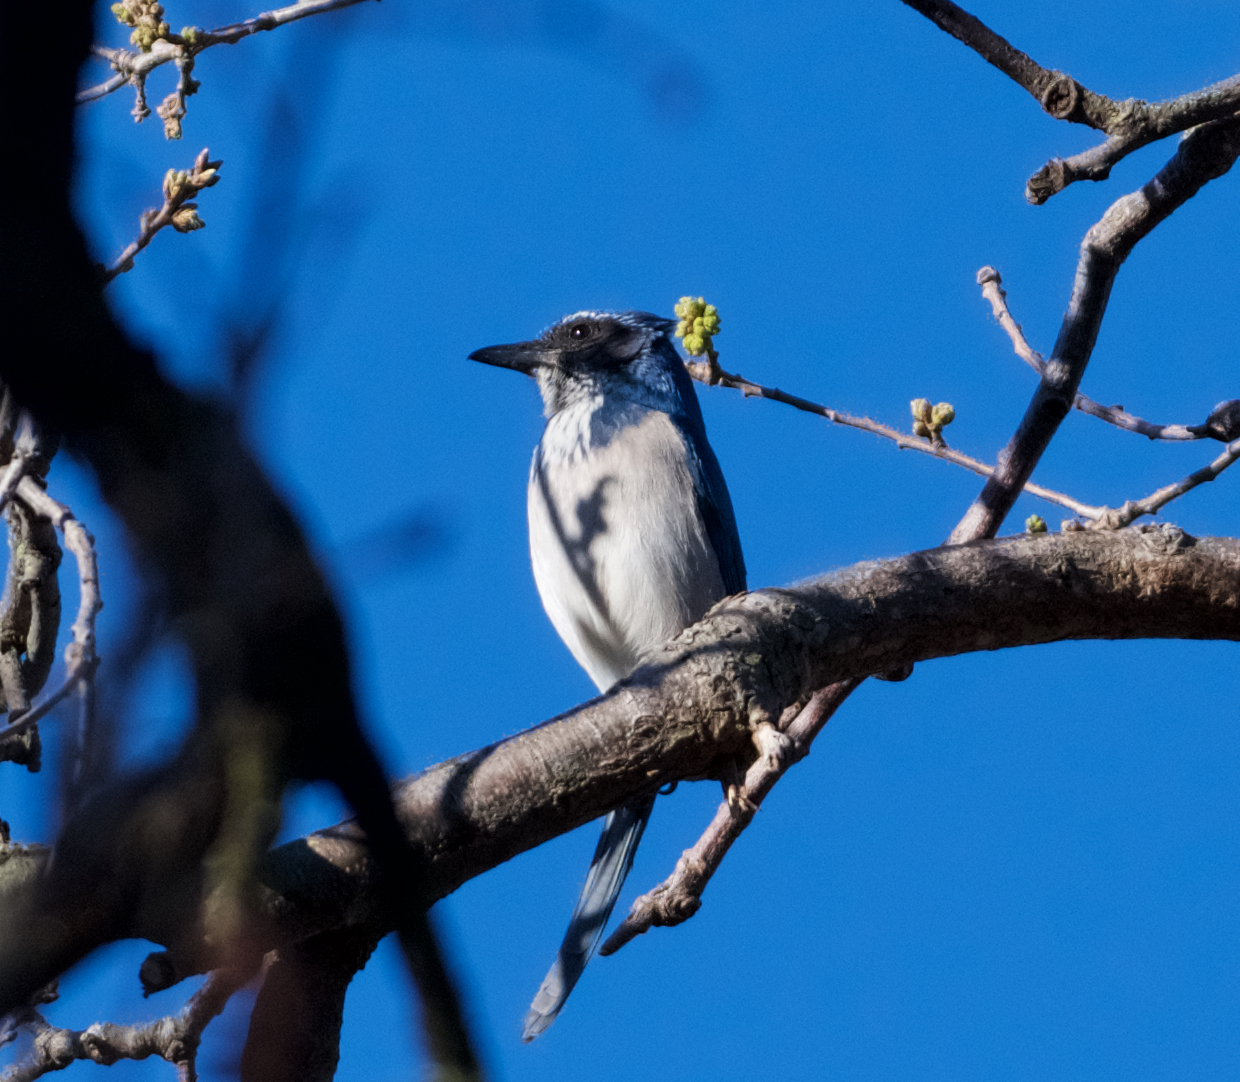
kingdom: Animalia
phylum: Chordata
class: Aves
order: Passeriformes
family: Corvidae
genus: Aphelocoma
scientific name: Aphelocoma californica
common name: California scrub-jay
